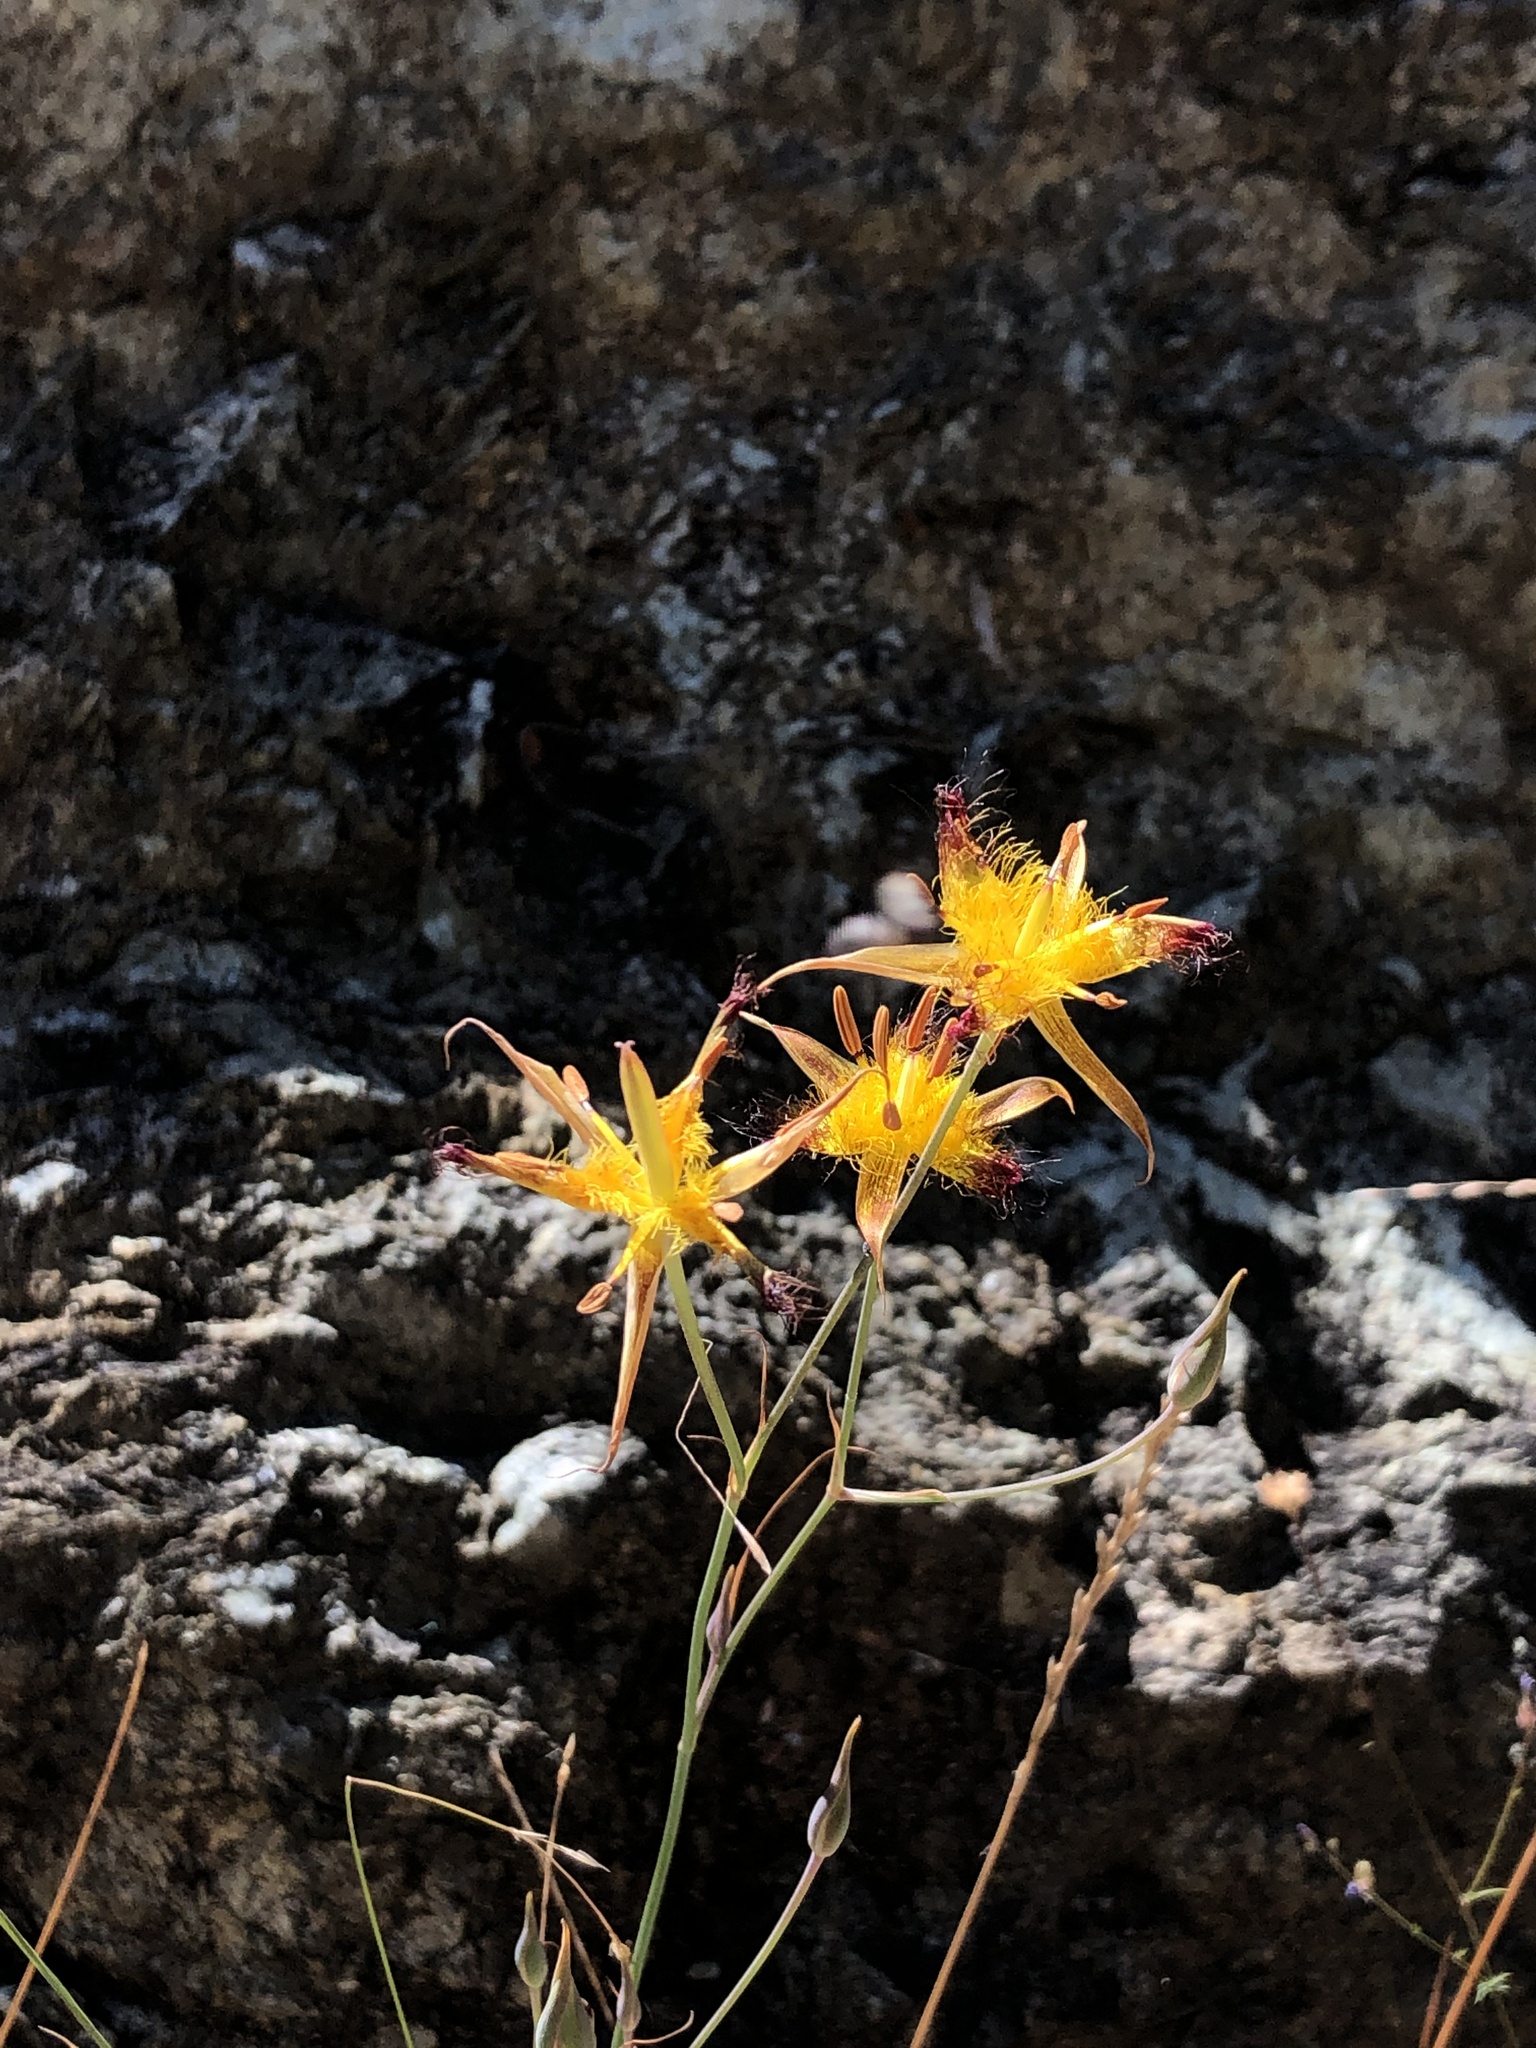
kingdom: Plantae
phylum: Tracheophyta
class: Liliopsida
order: Liliales
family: Liliaceae
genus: Calochortus
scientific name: Calochortus obispoensis
